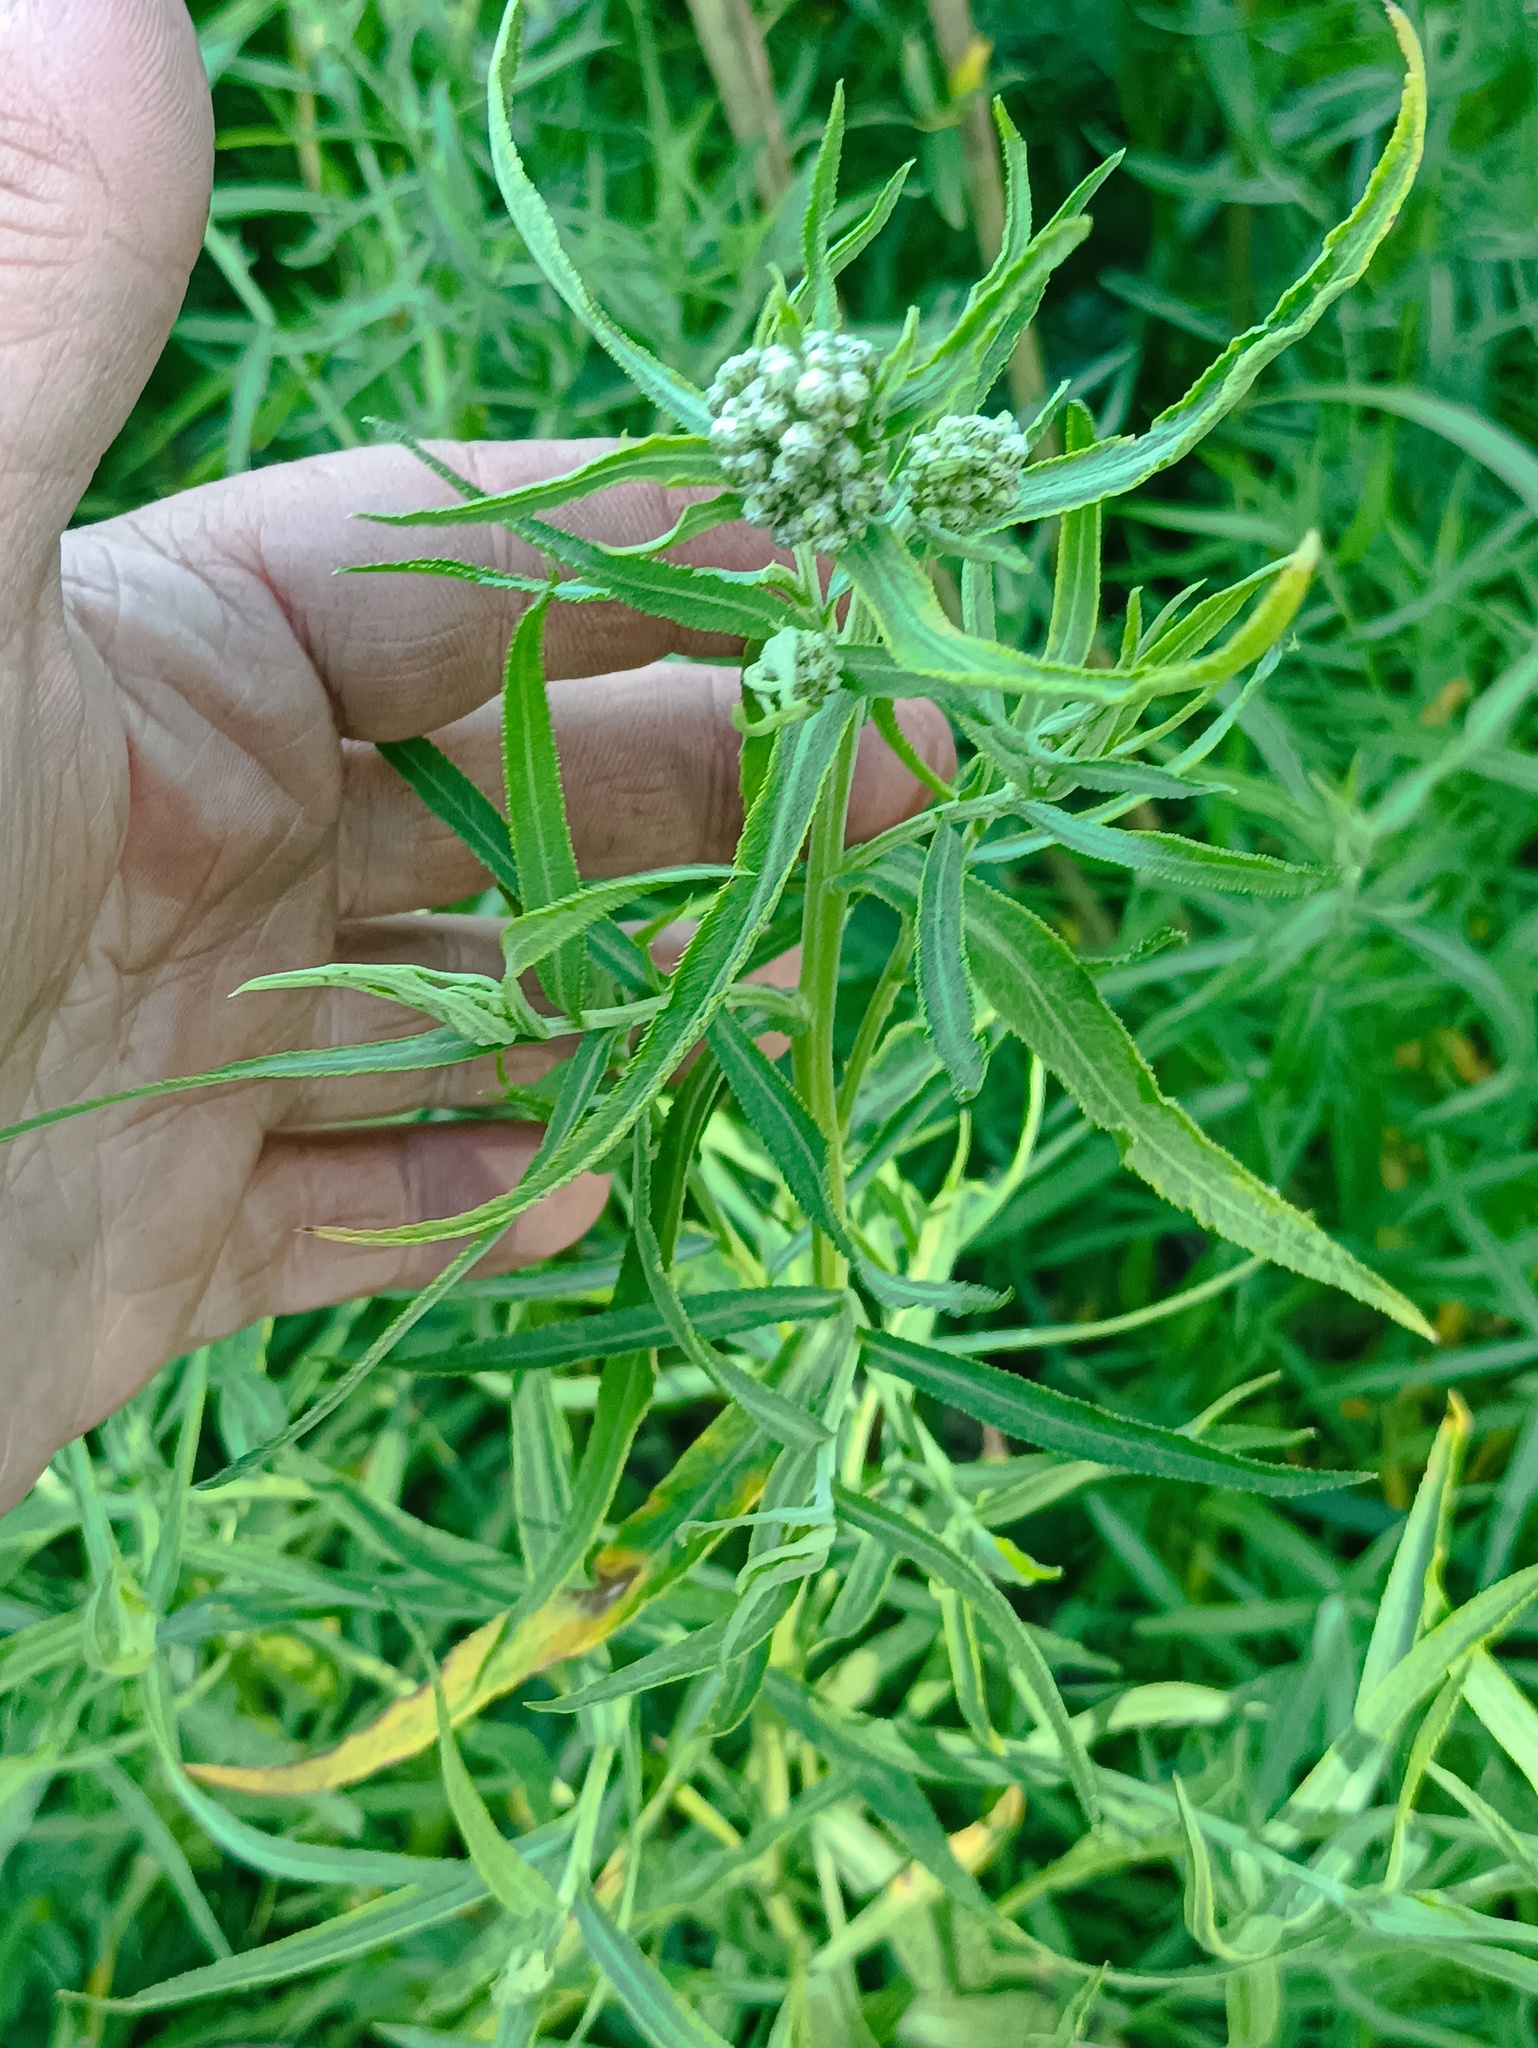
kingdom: Plantae
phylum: Tracheophyta
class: Magnoliopsida
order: Asterales
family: Asteraceae
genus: Achillea
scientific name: Achillea salicifolia
